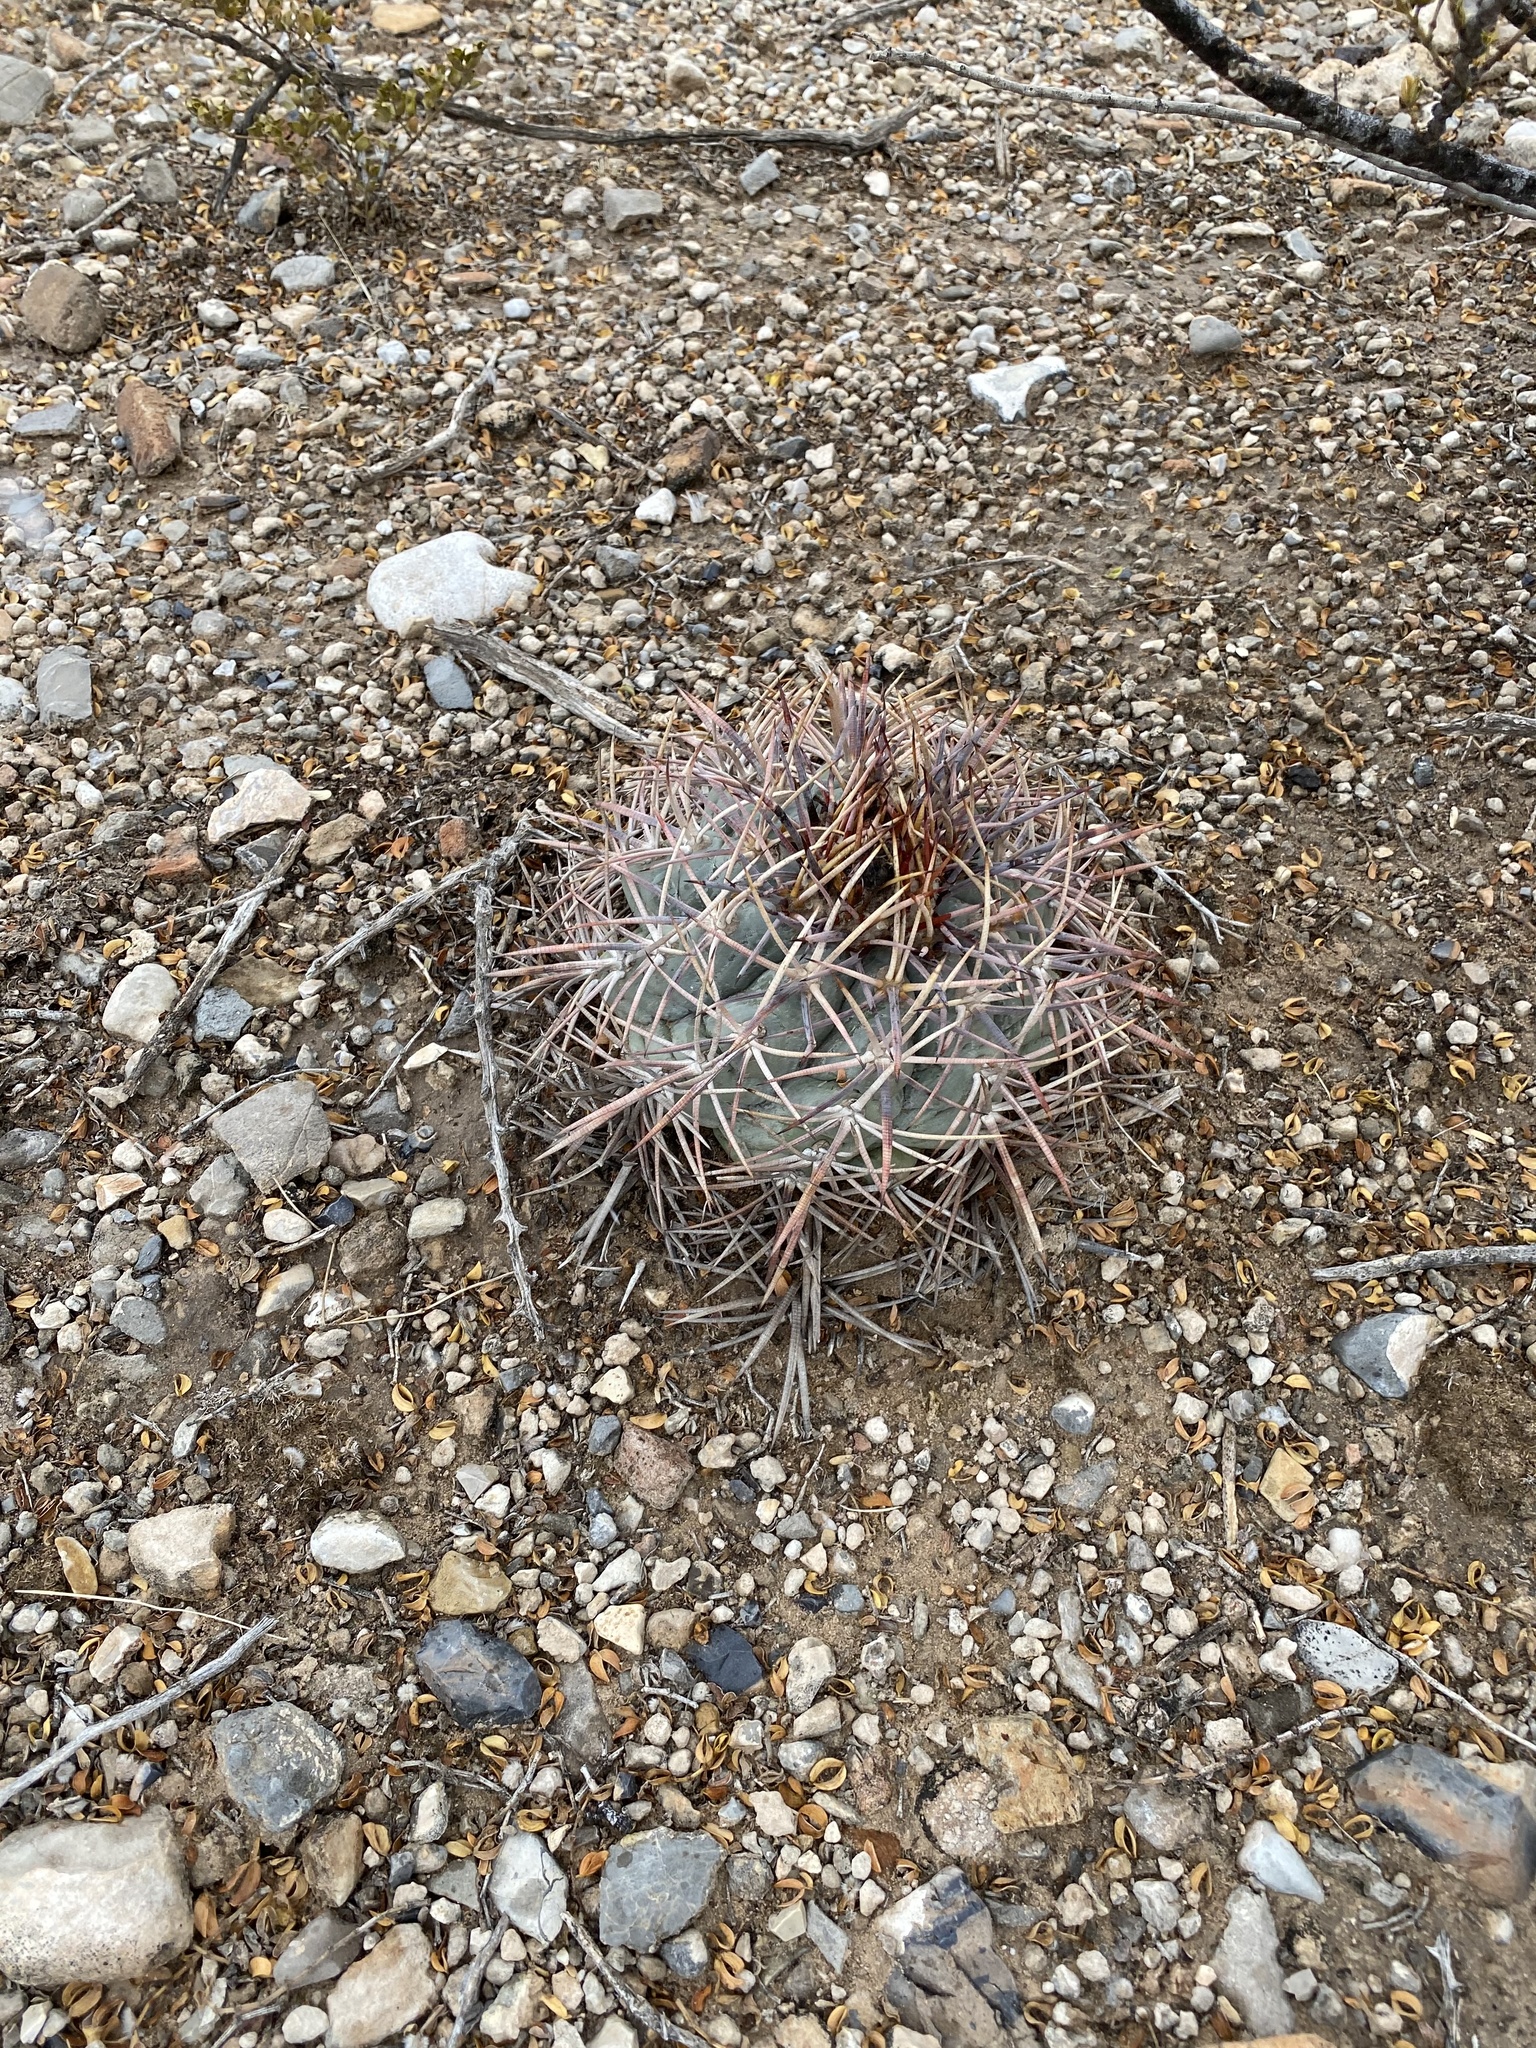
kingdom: Plantae
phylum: Tracheophyta
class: Magnoliopsida
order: Caryophyllales
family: Cactaceae
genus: Echinocactus
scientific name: Echinocactus horizonthalonius
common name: Devilshead
